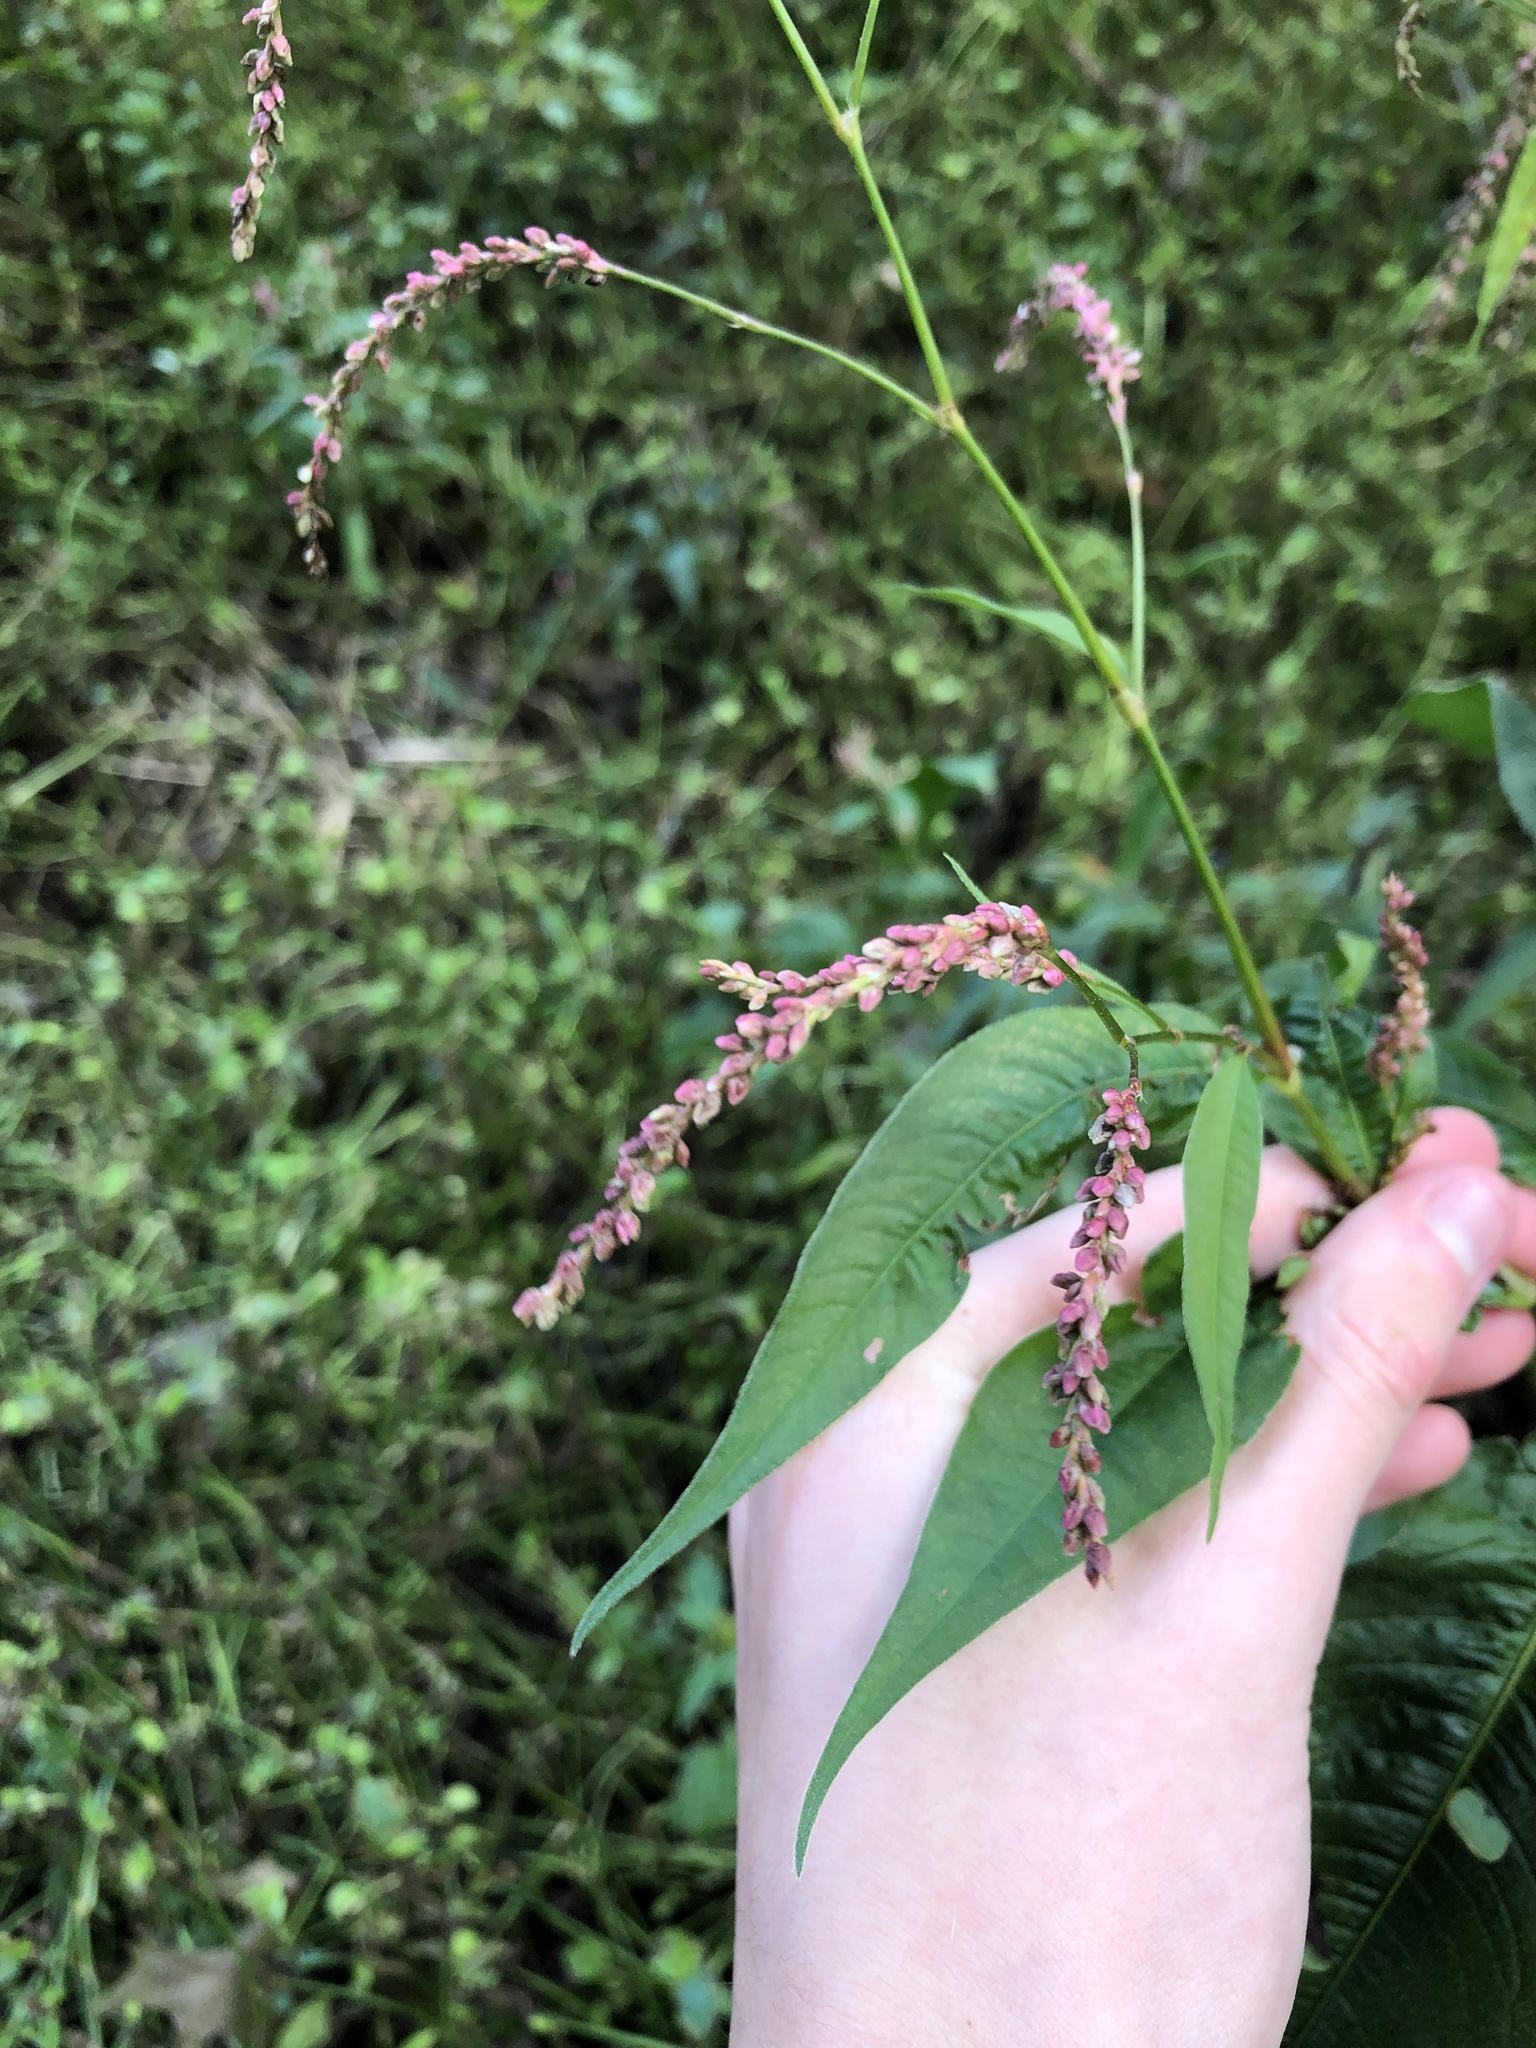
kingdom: Plantae
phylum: Tracheophyta
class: Magnoliopsida
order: Caryophyllales
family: Polygonaceae
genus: Persicaria
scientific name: Persicaria extremiorientalis
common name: Far-eastern smartweed
